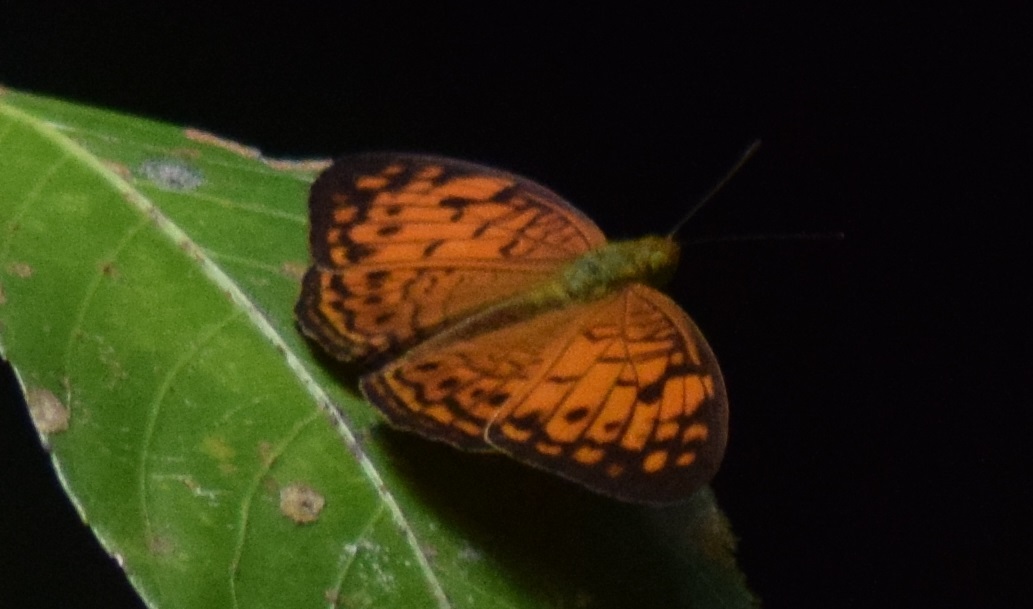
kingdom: Animalia
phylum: Arthropoda
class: Insecta
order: Lepidoptera
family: Nymphalidae
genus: Phalanta
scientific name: Phalanta alcippe
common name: Small leopard
